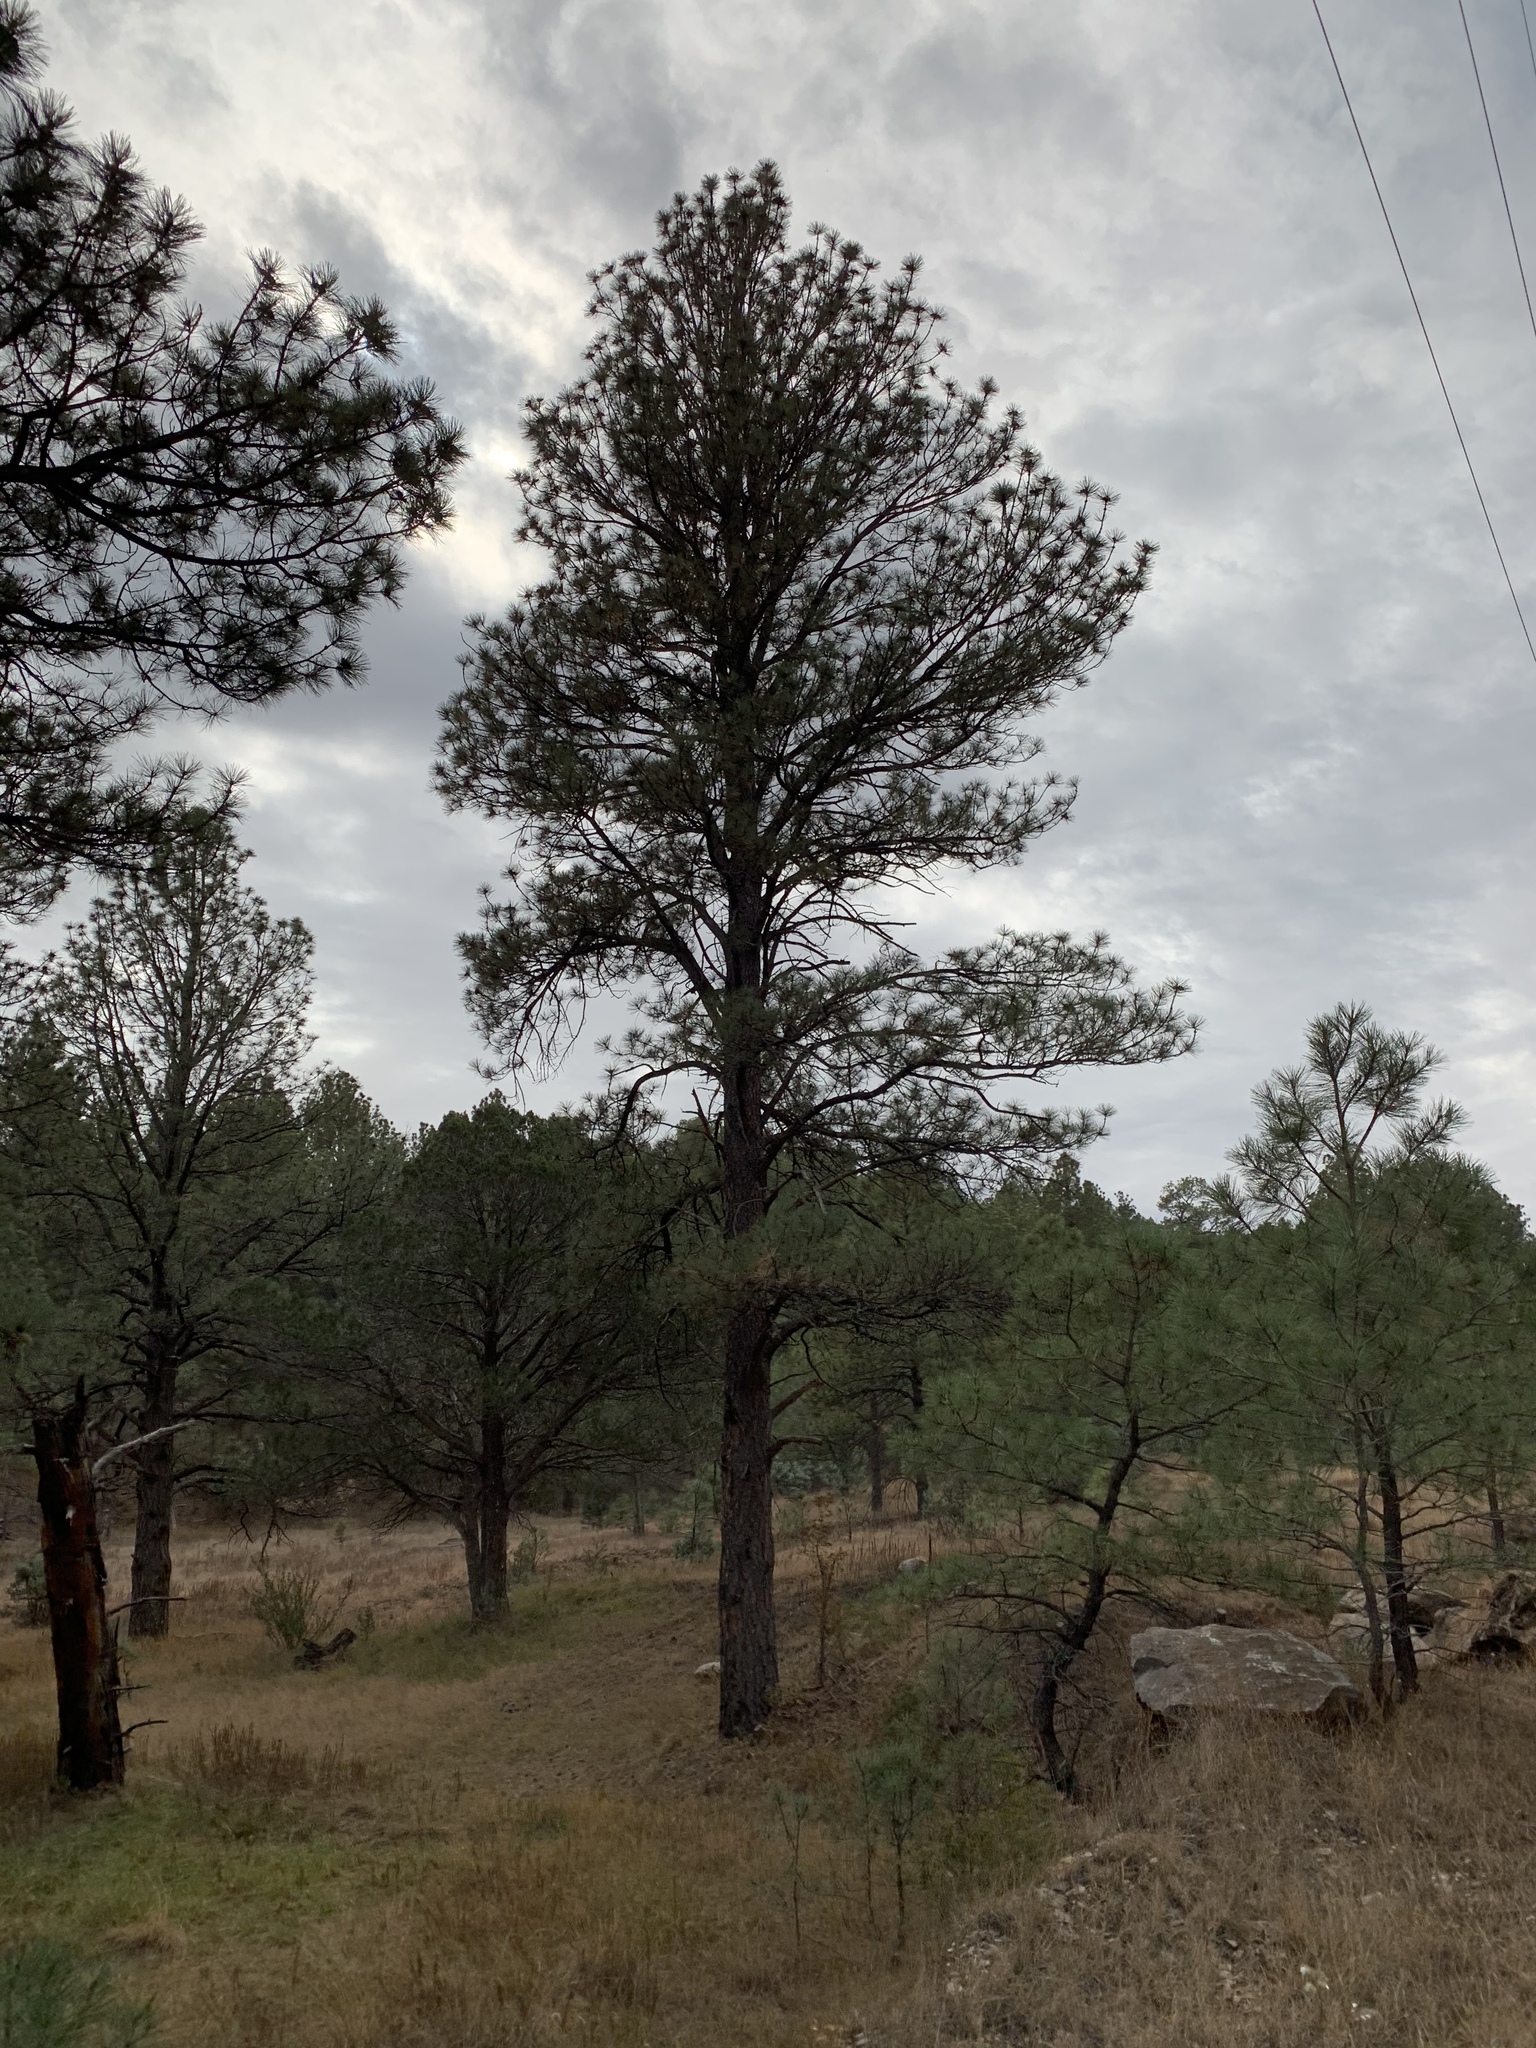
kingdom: Plantae
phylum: Tracheophyta
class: Pinopsida
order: Pinales
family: Pinaceae
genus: Pinus
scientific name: Pinus ponderosa
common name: Western yellow-pine
